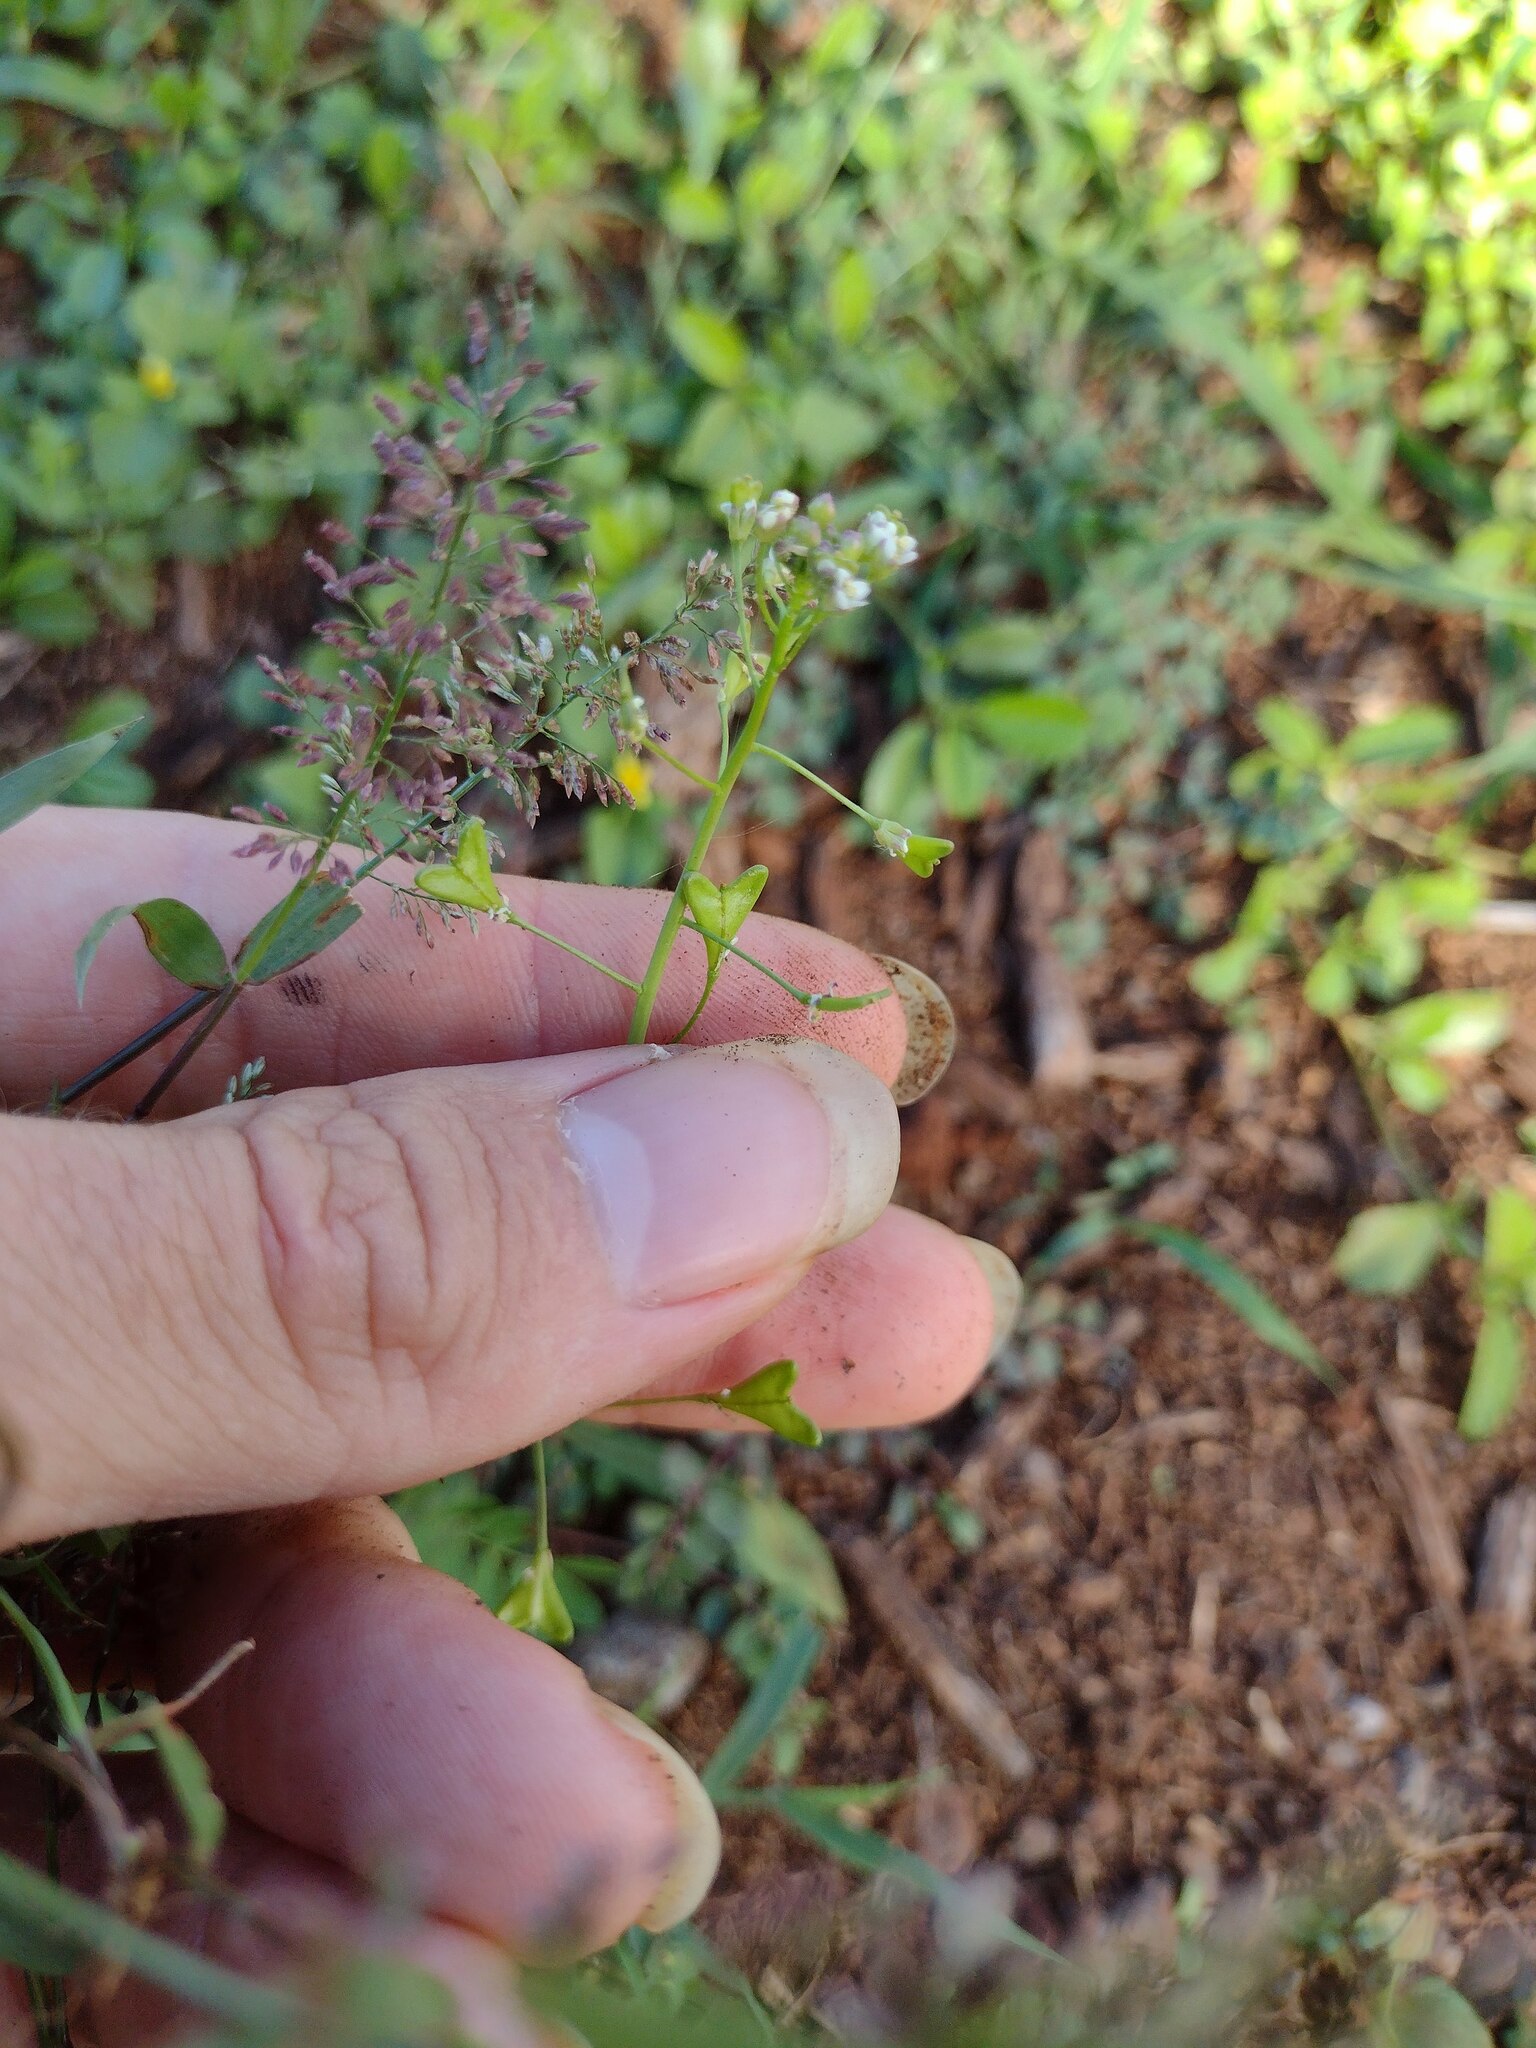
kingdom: Plantae
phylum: Tracheophyta
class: Magnoliopsida
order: Brassicales
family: Brassicaceae
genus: Capsella
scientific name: Capsella bursa-pastoris
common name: Shepherd's purse
